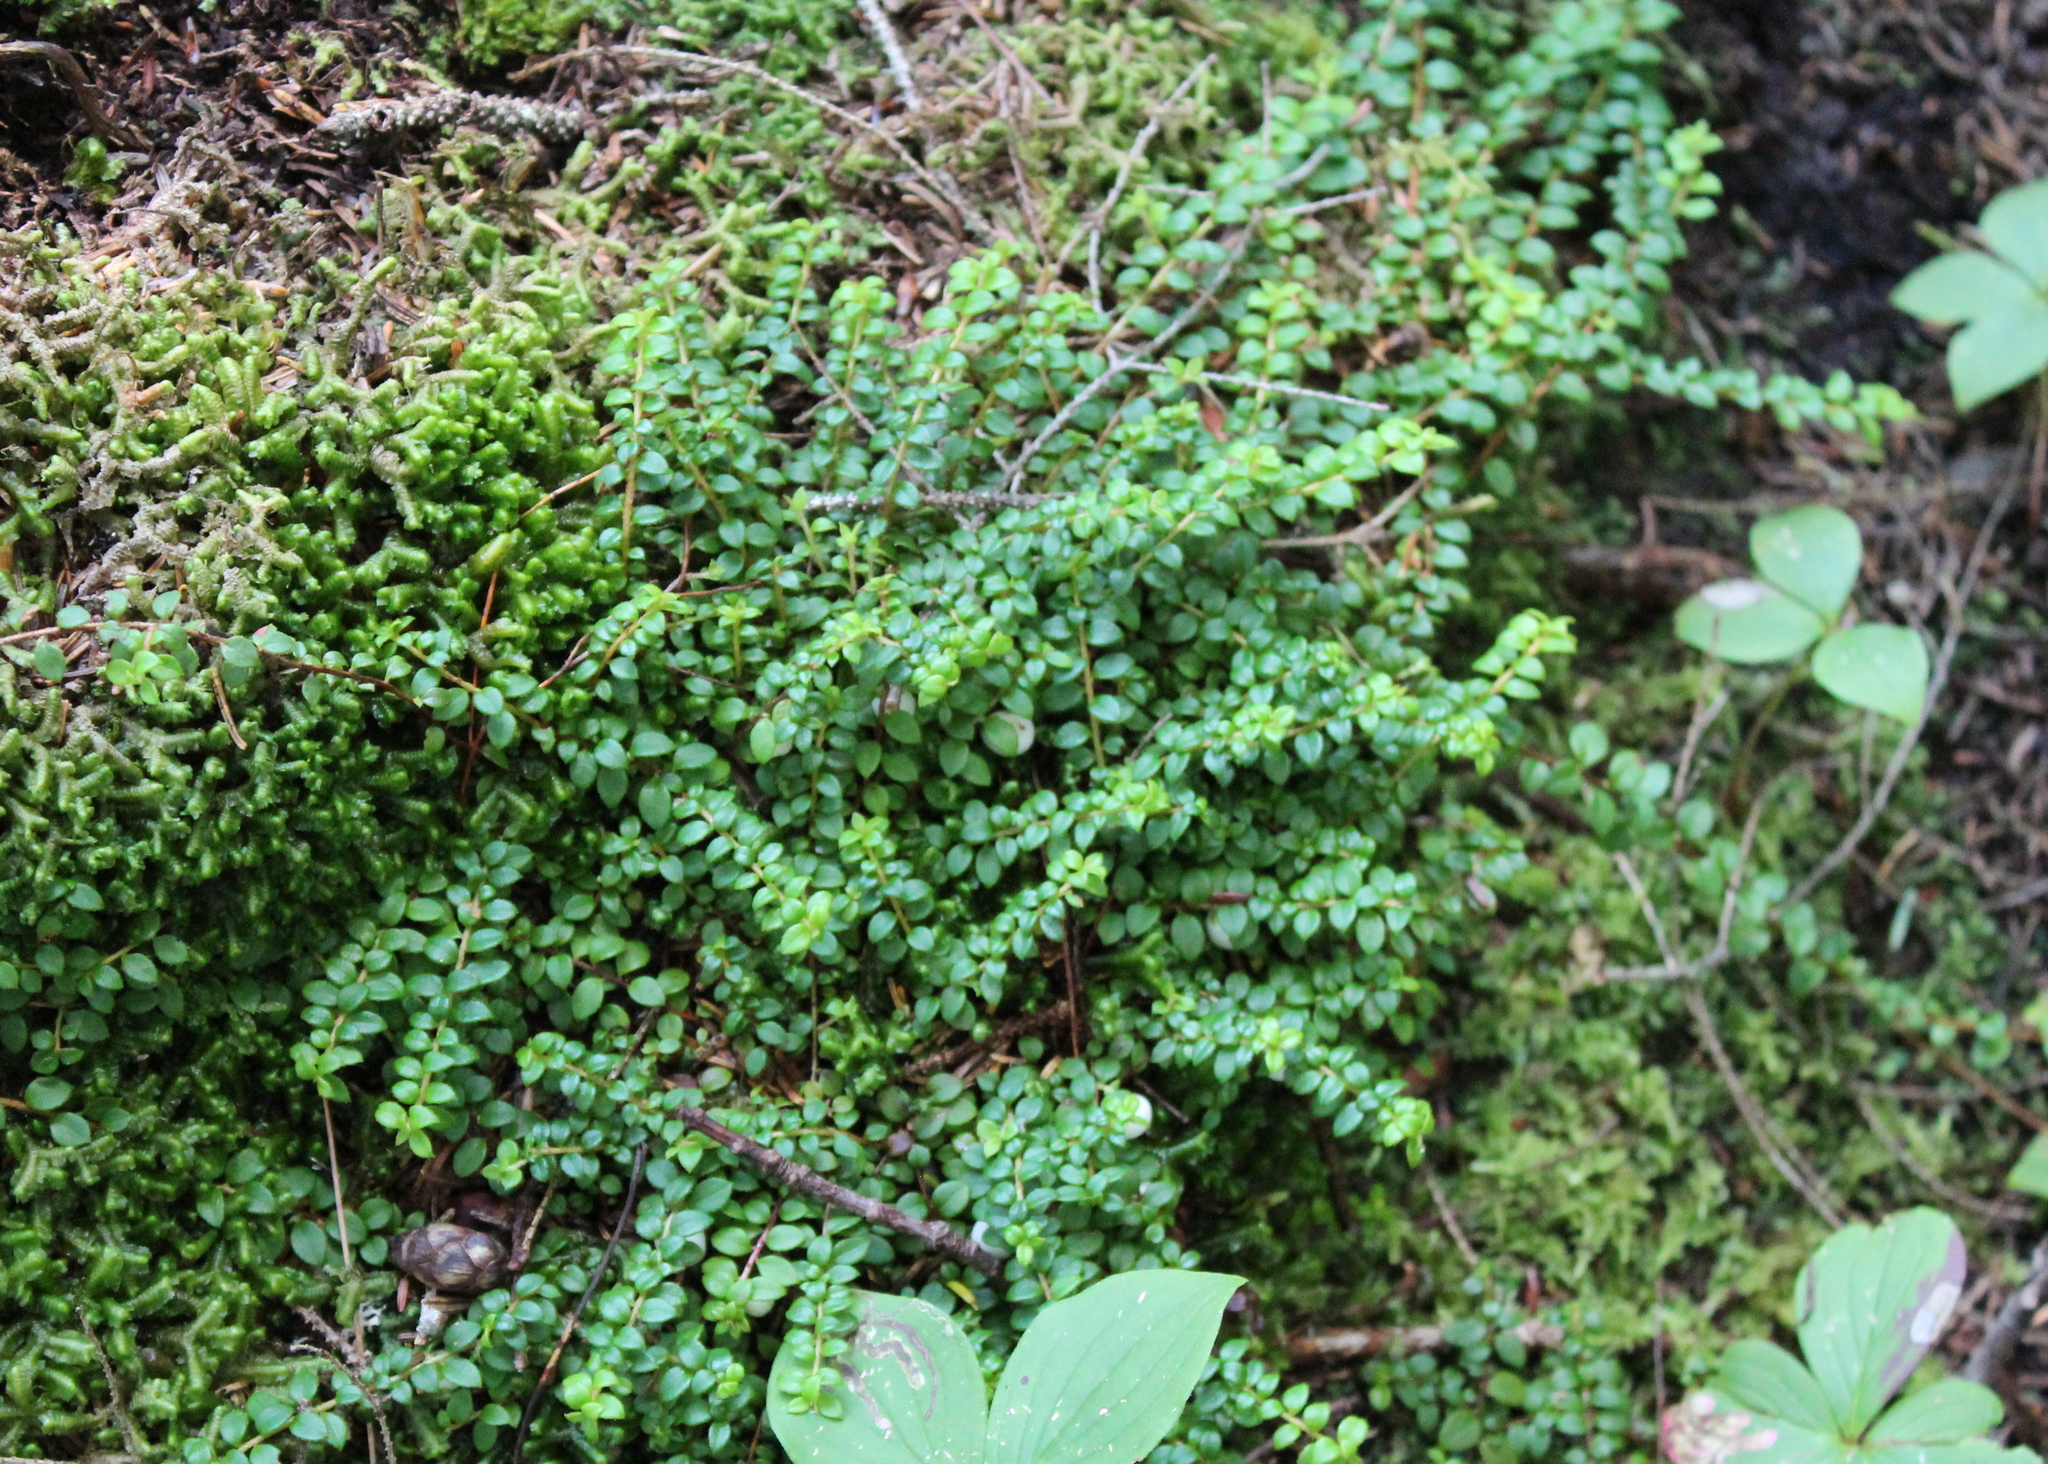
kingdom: Plantae
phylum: Tracheophyta
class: Magnoliopsida
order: Ericales
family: Ericaceae
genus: Gaultheria
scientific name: Gaultheria hispidula
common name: Cancer wintergreen
